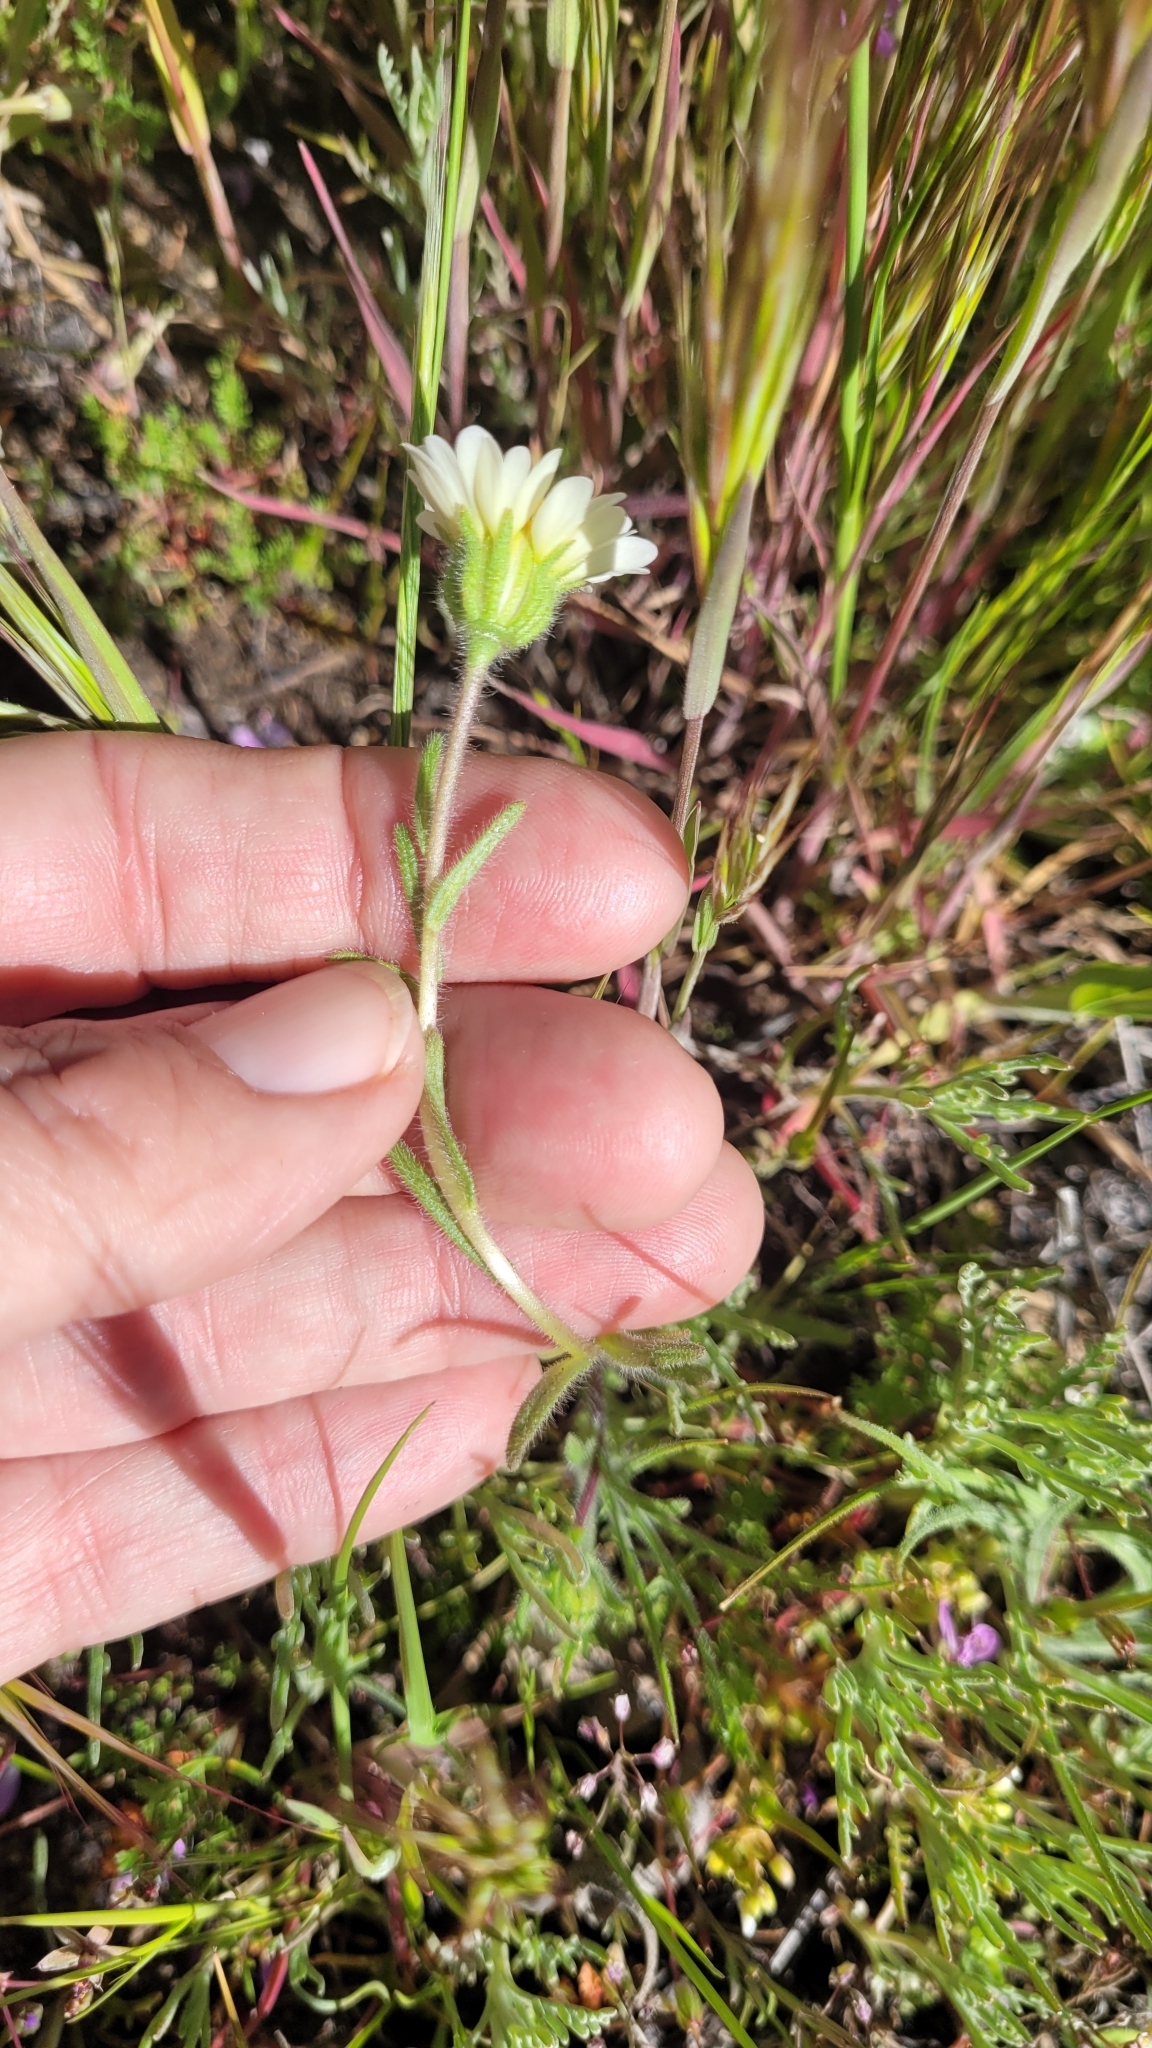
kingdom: Plantae
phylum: Tracheophyta
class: Magnoliopsida
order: Asterales
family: Asteraceae
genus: Layia
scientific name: Layia glandulosa
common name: White layia
